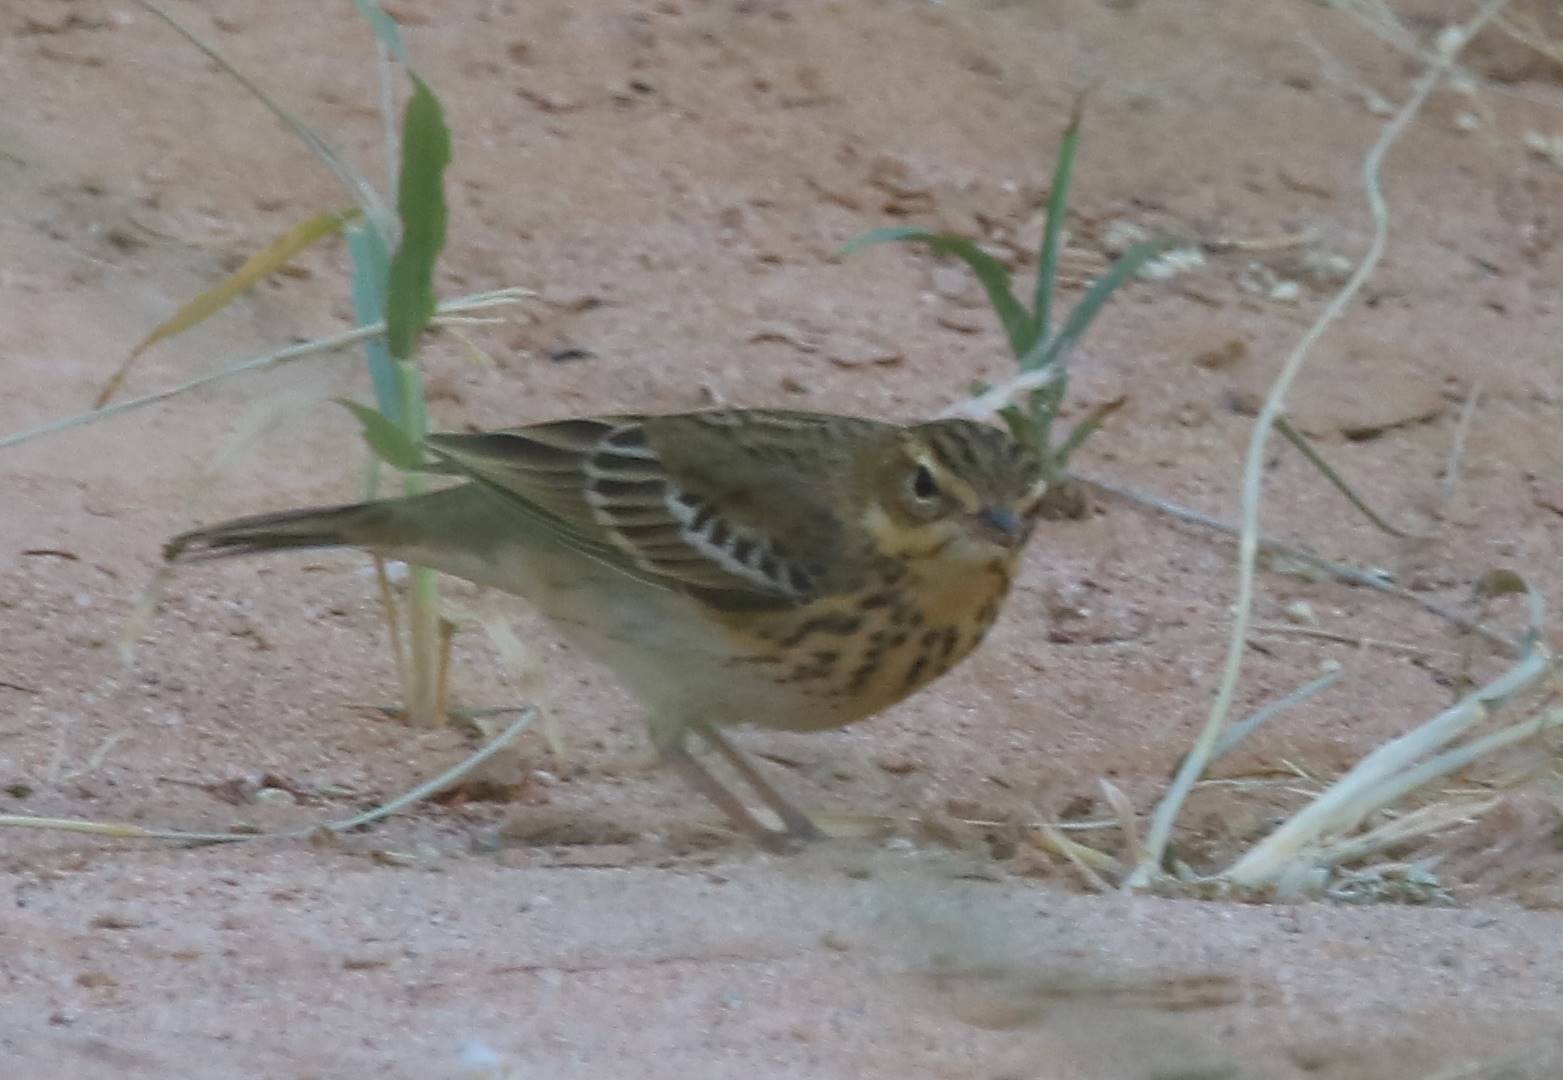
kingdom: Animalia
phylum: Chordata
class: Aves
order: Passeriformes
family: Motacillidae
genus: Anthus
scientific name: Anthus trivialis
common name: Tree pipit
